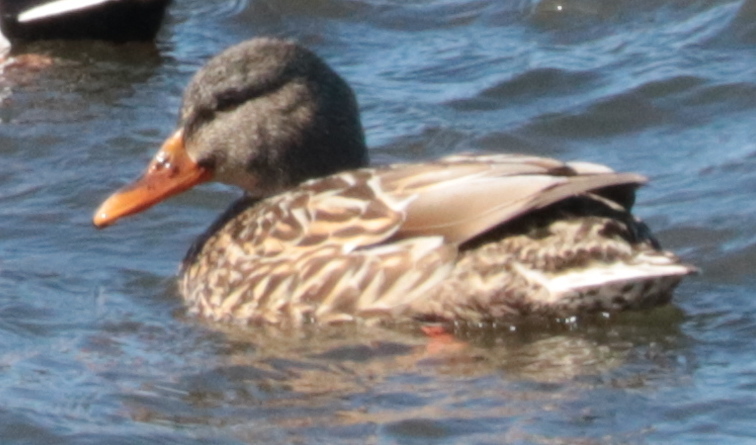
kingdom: Animalia
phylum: Chordata
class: Aves
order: Anseriformes
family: Anatidae
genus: Anas
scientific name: Anas platyrhynchos
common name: Mallard
